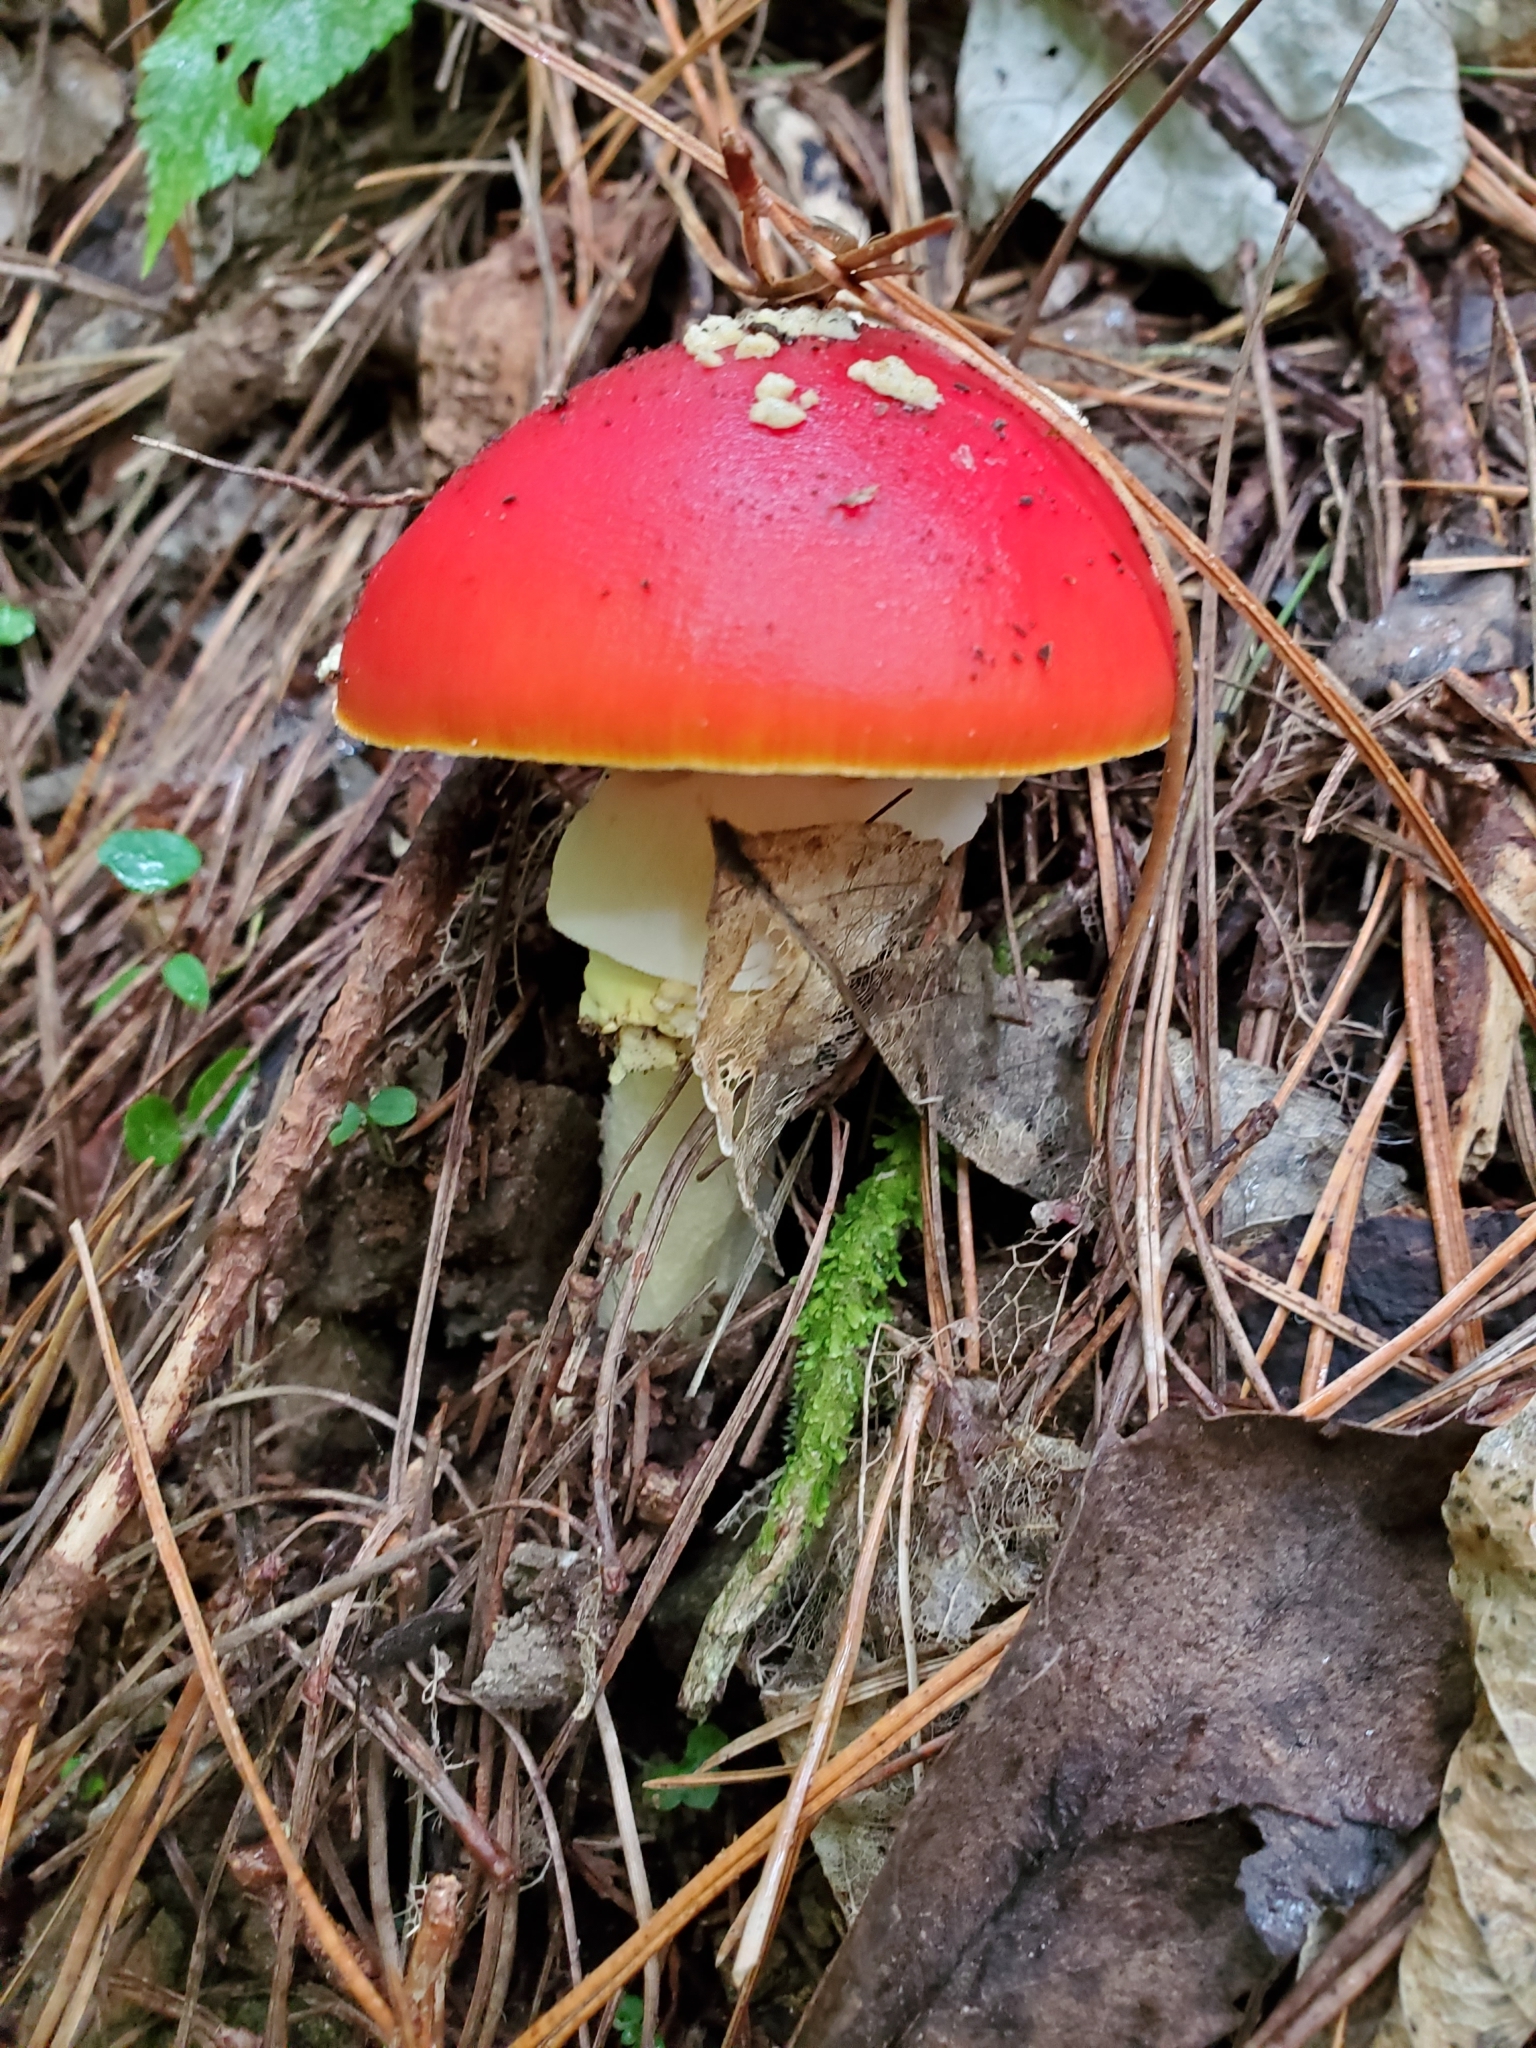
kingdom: Fungi
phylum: Basidiomycota
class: Agaricomycetes
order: Agaricales
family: Amanitaceae
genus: Amanita
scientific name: Amanita muscaria
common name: Fly agaric
